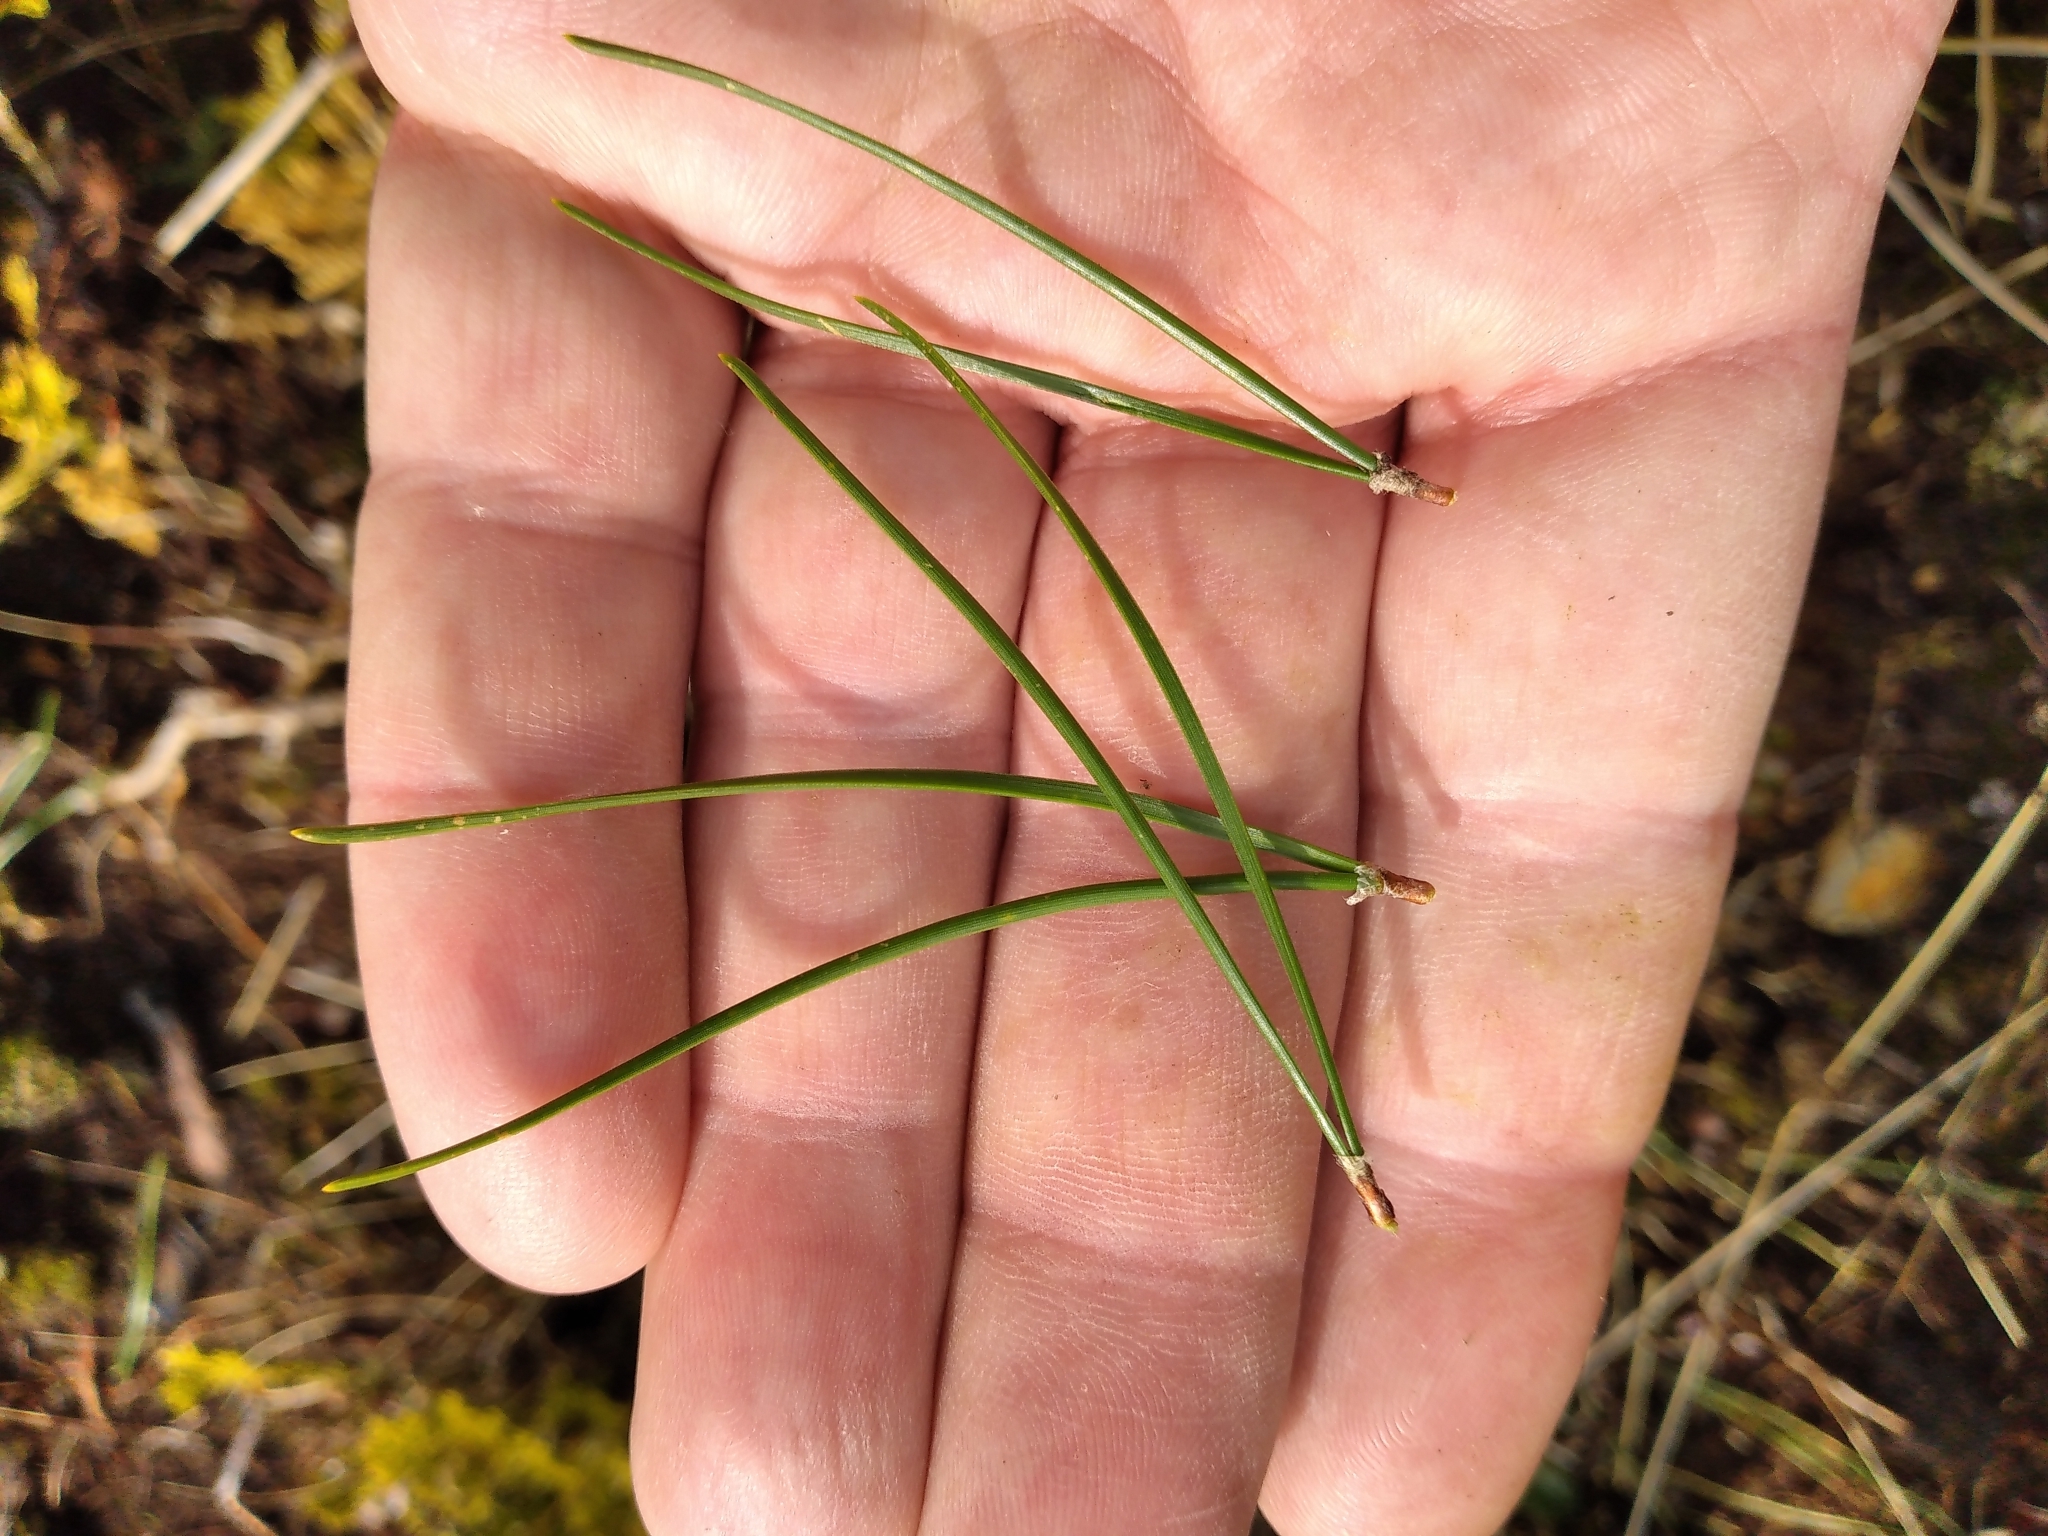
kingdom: Plantae
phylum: Tracheophyta
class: Pinopsida
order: Pinales
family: Pinaceae
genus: Pinus
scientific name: Pinus contorta
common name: Lodgepole pine
